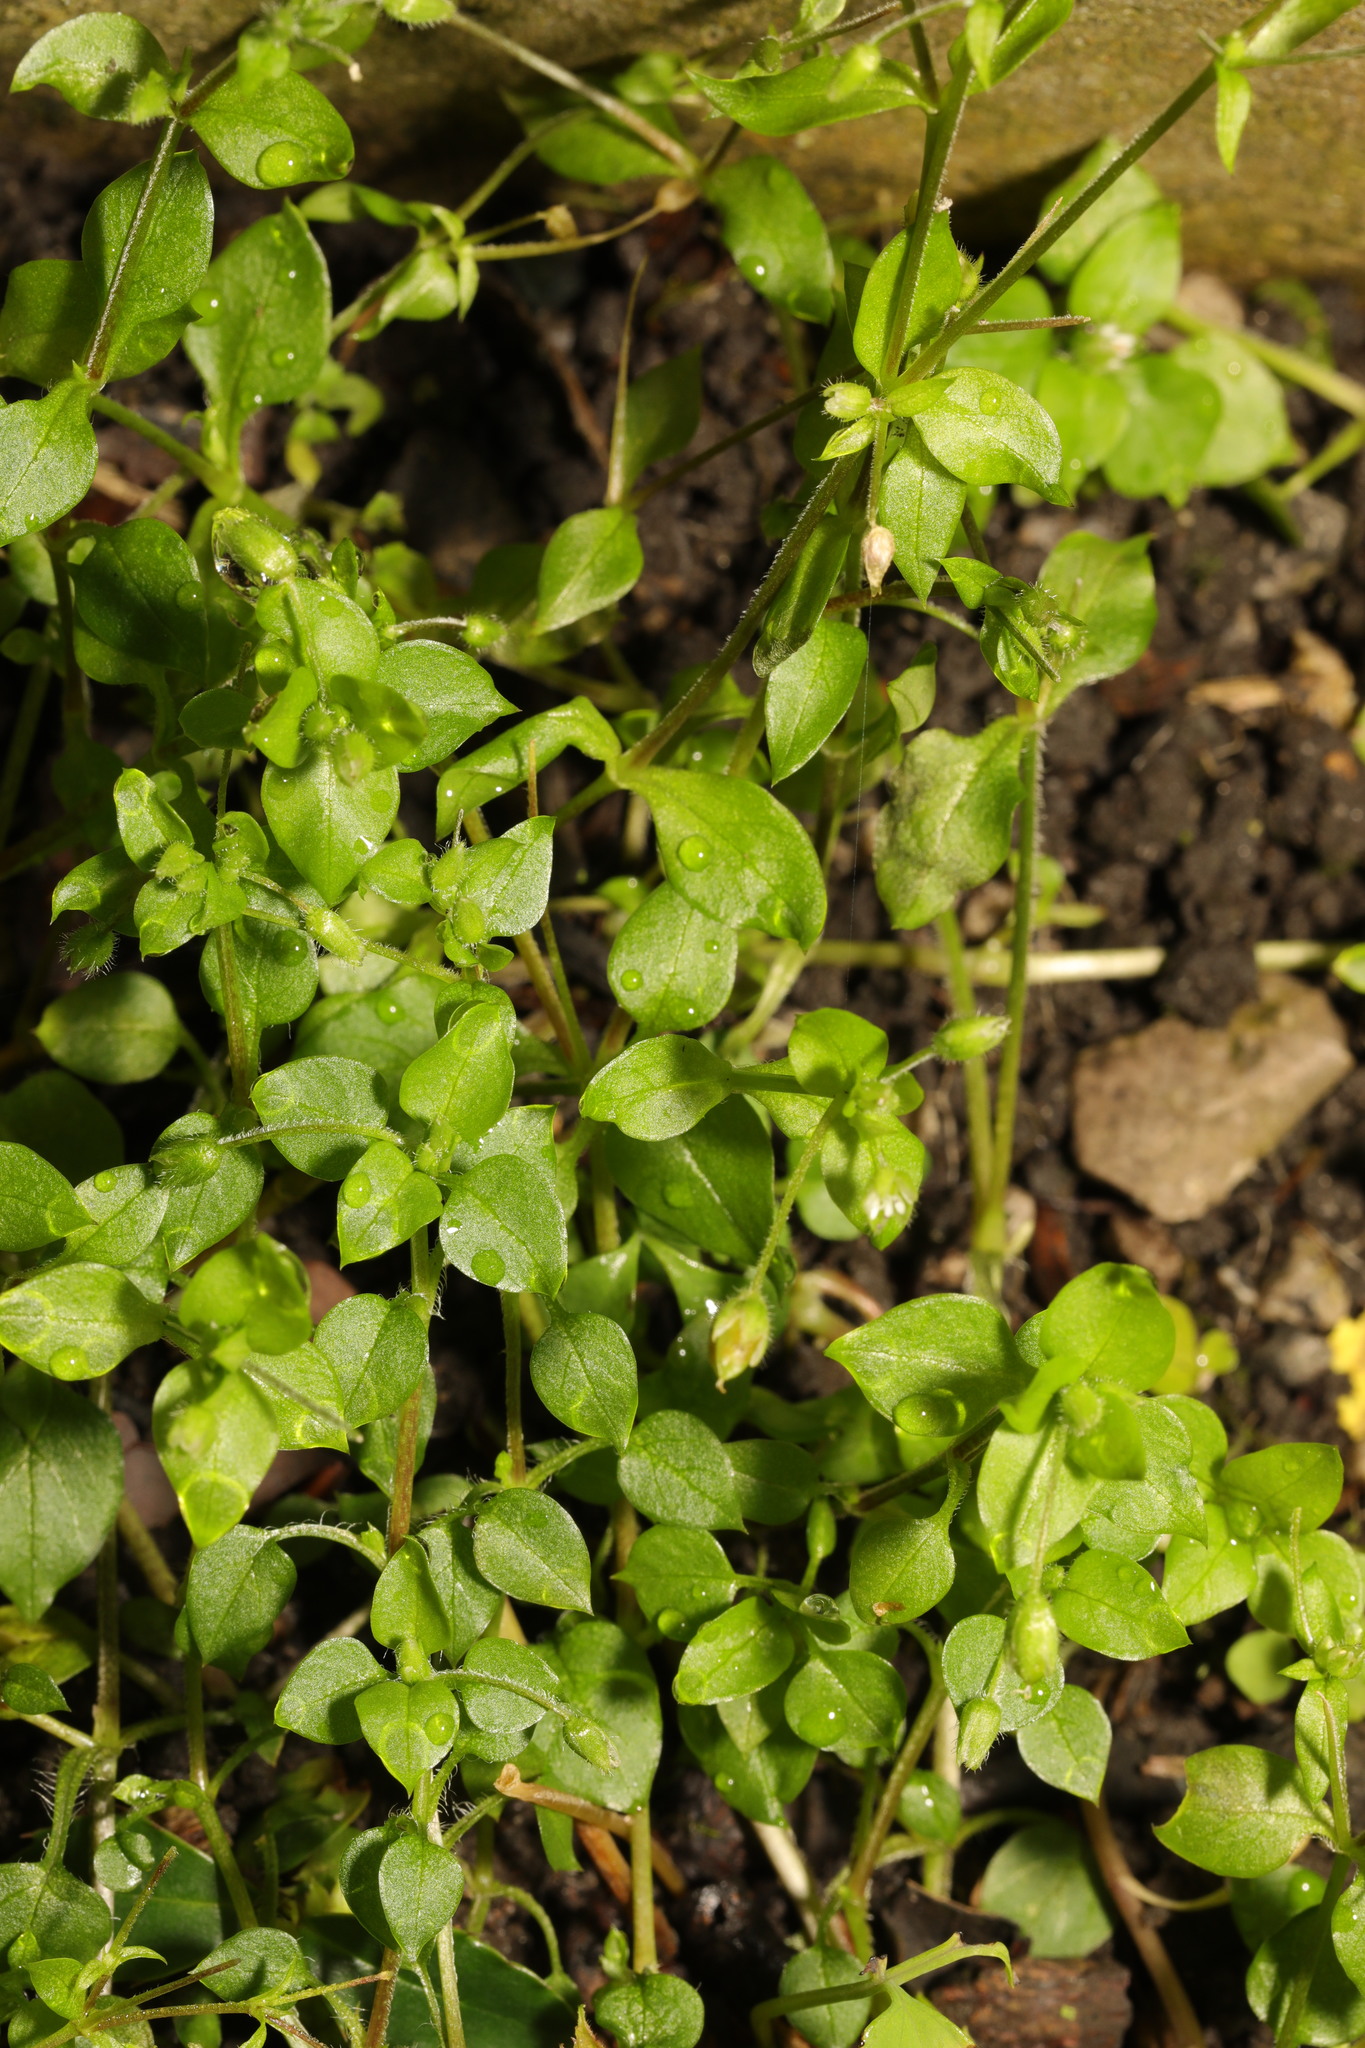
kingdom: Plantae
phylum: Tracheophyta
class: Magnoliopsida
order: Caryophyllales
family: Caryophyllaceae
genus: Stellaria
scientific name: Stellaria media
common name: Common chickweed
